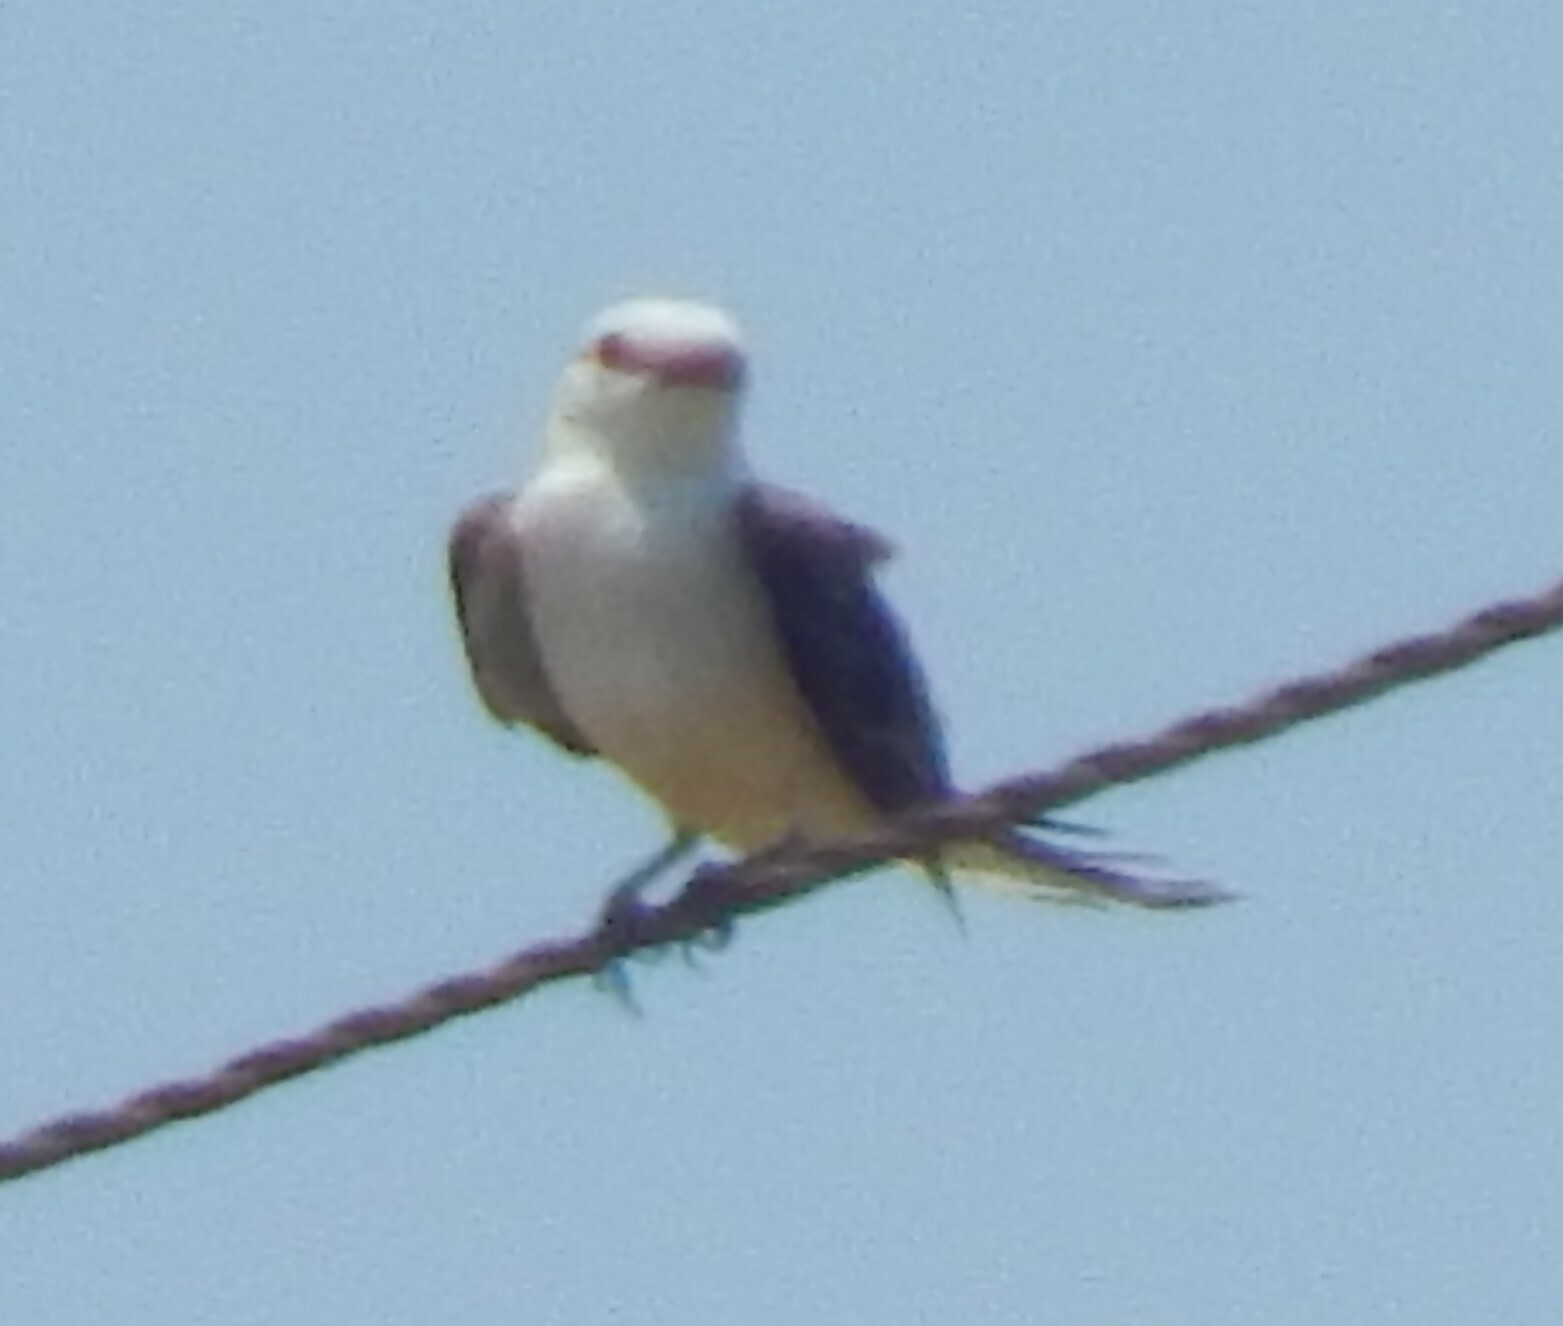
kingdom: Animalia
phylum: Chordata
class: Aves
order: Passeriformes
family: Tyrannidae
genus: Tyrannus
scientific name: Tyrannus forficatus
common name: Scissor-tailed flycatcher
